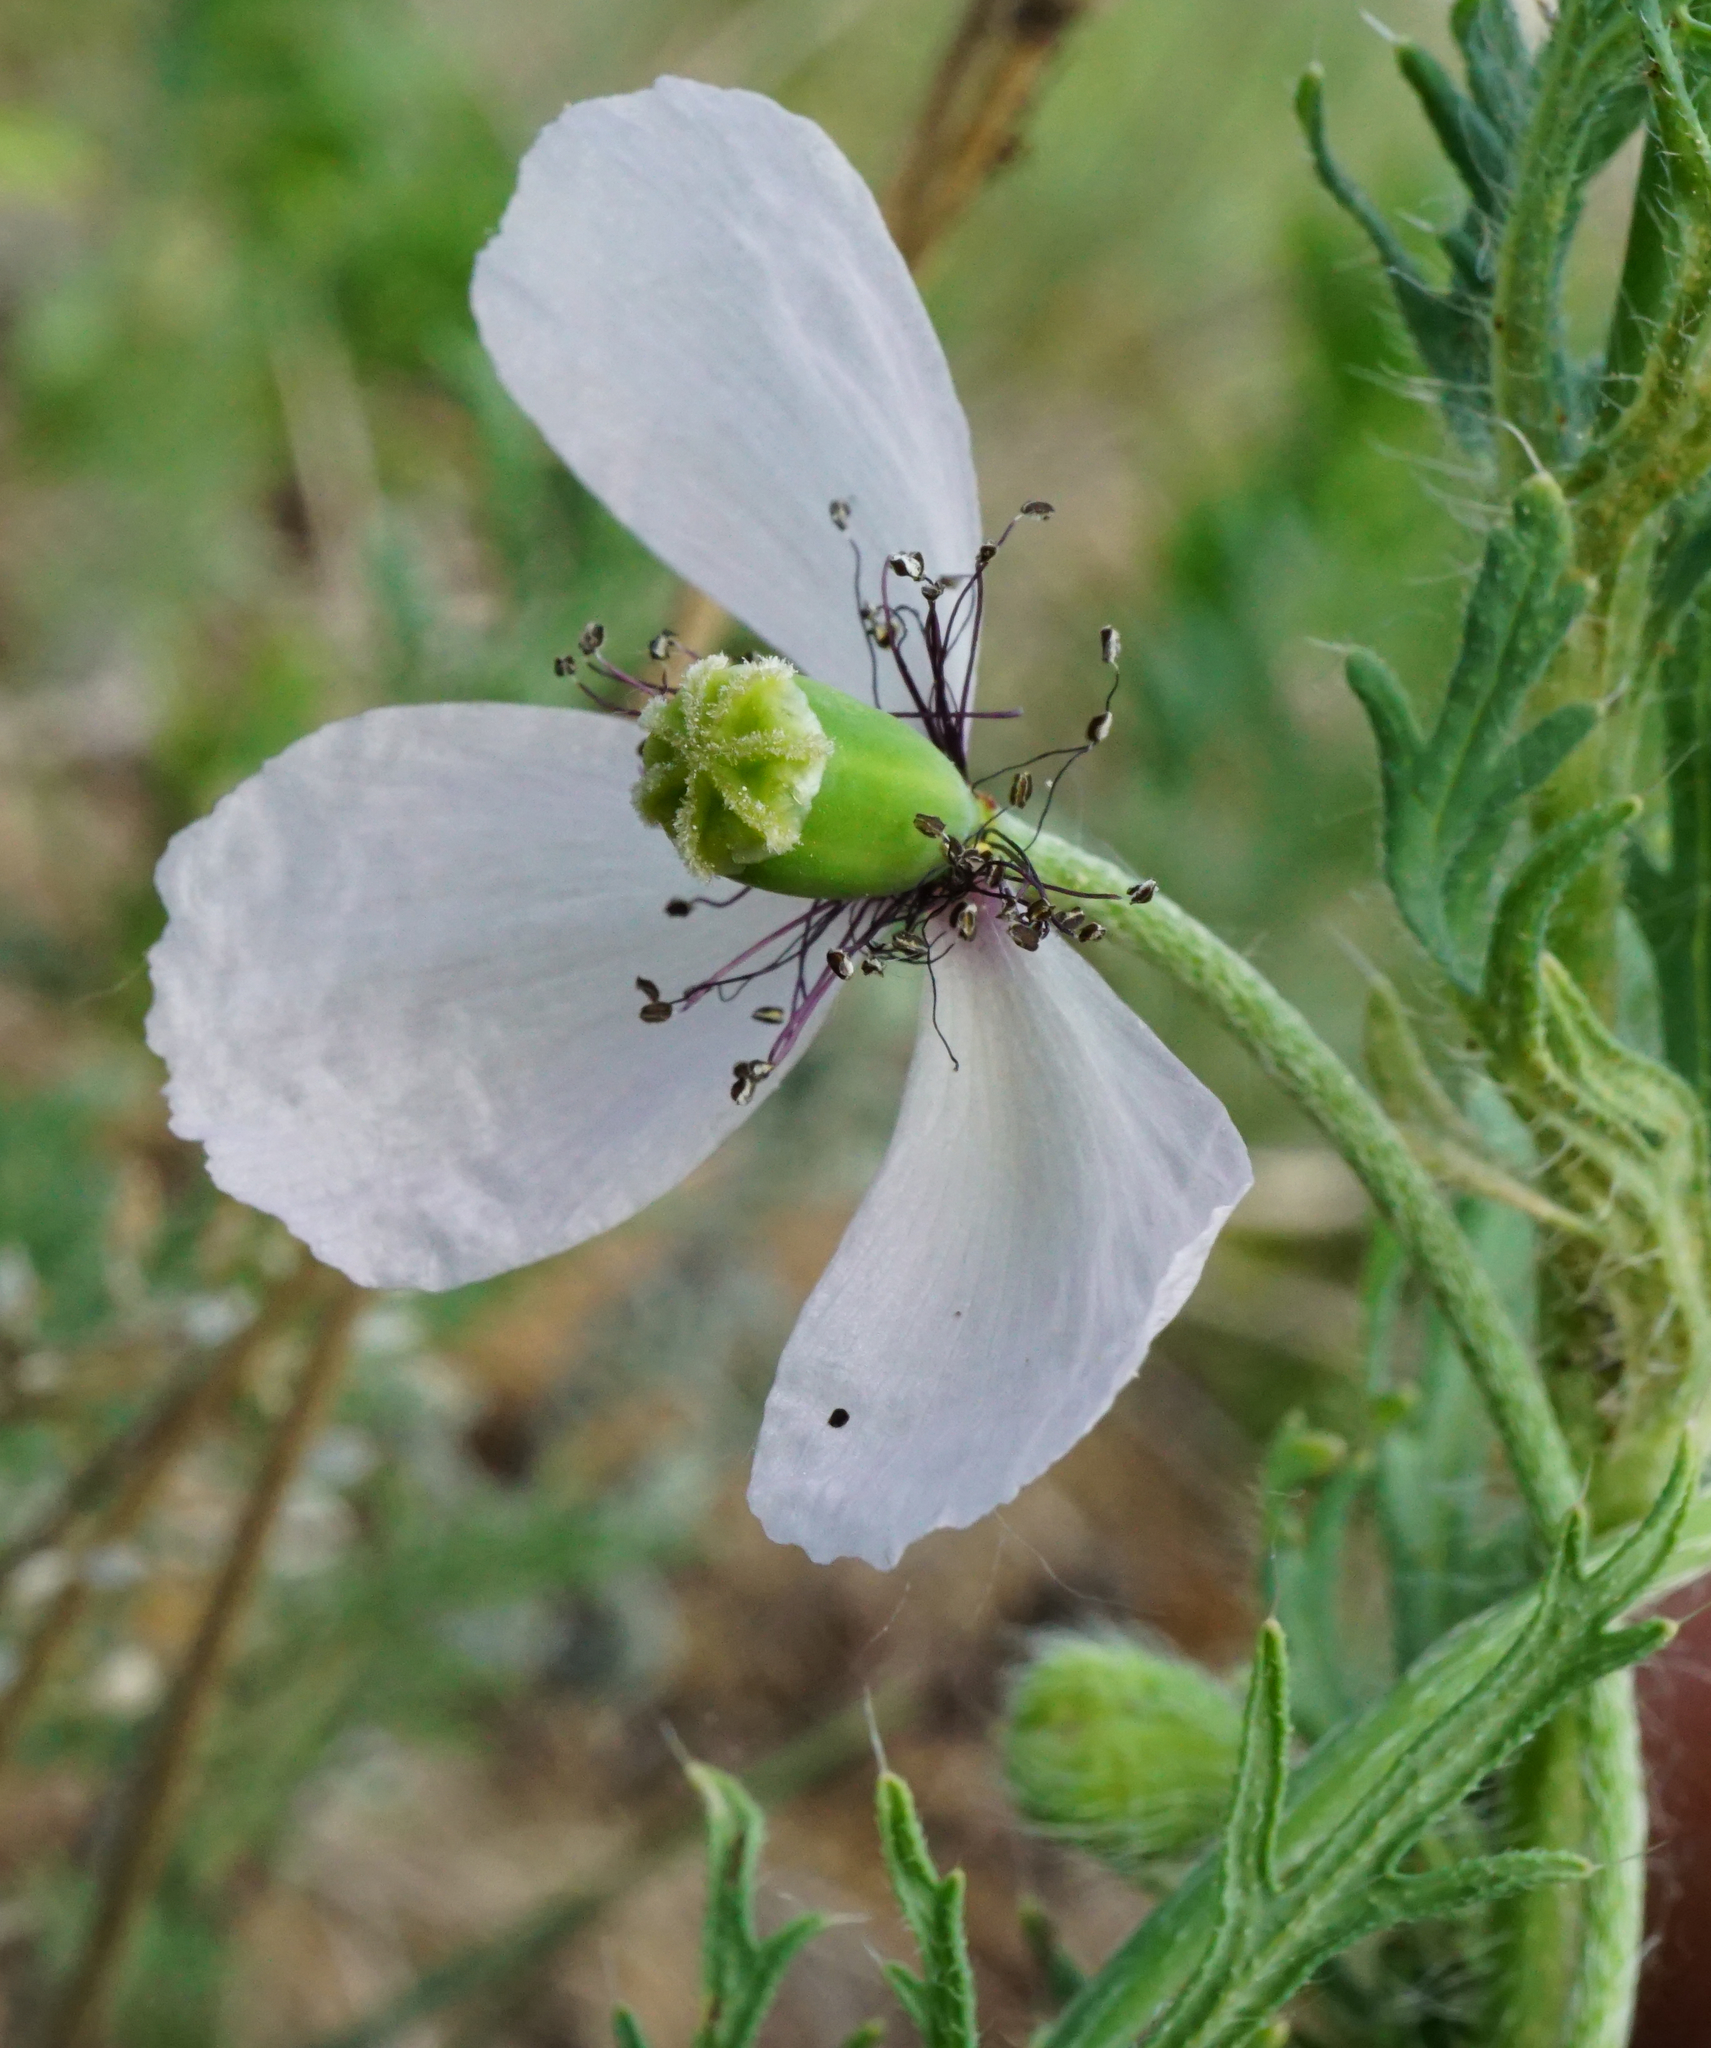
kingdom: Plantae
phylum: Tracheophyta
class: Magnoliopsida
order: Ranunculales
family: Papaveraceae
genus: Papaver
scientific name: Papaver dubium
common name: Long-headed poppy
